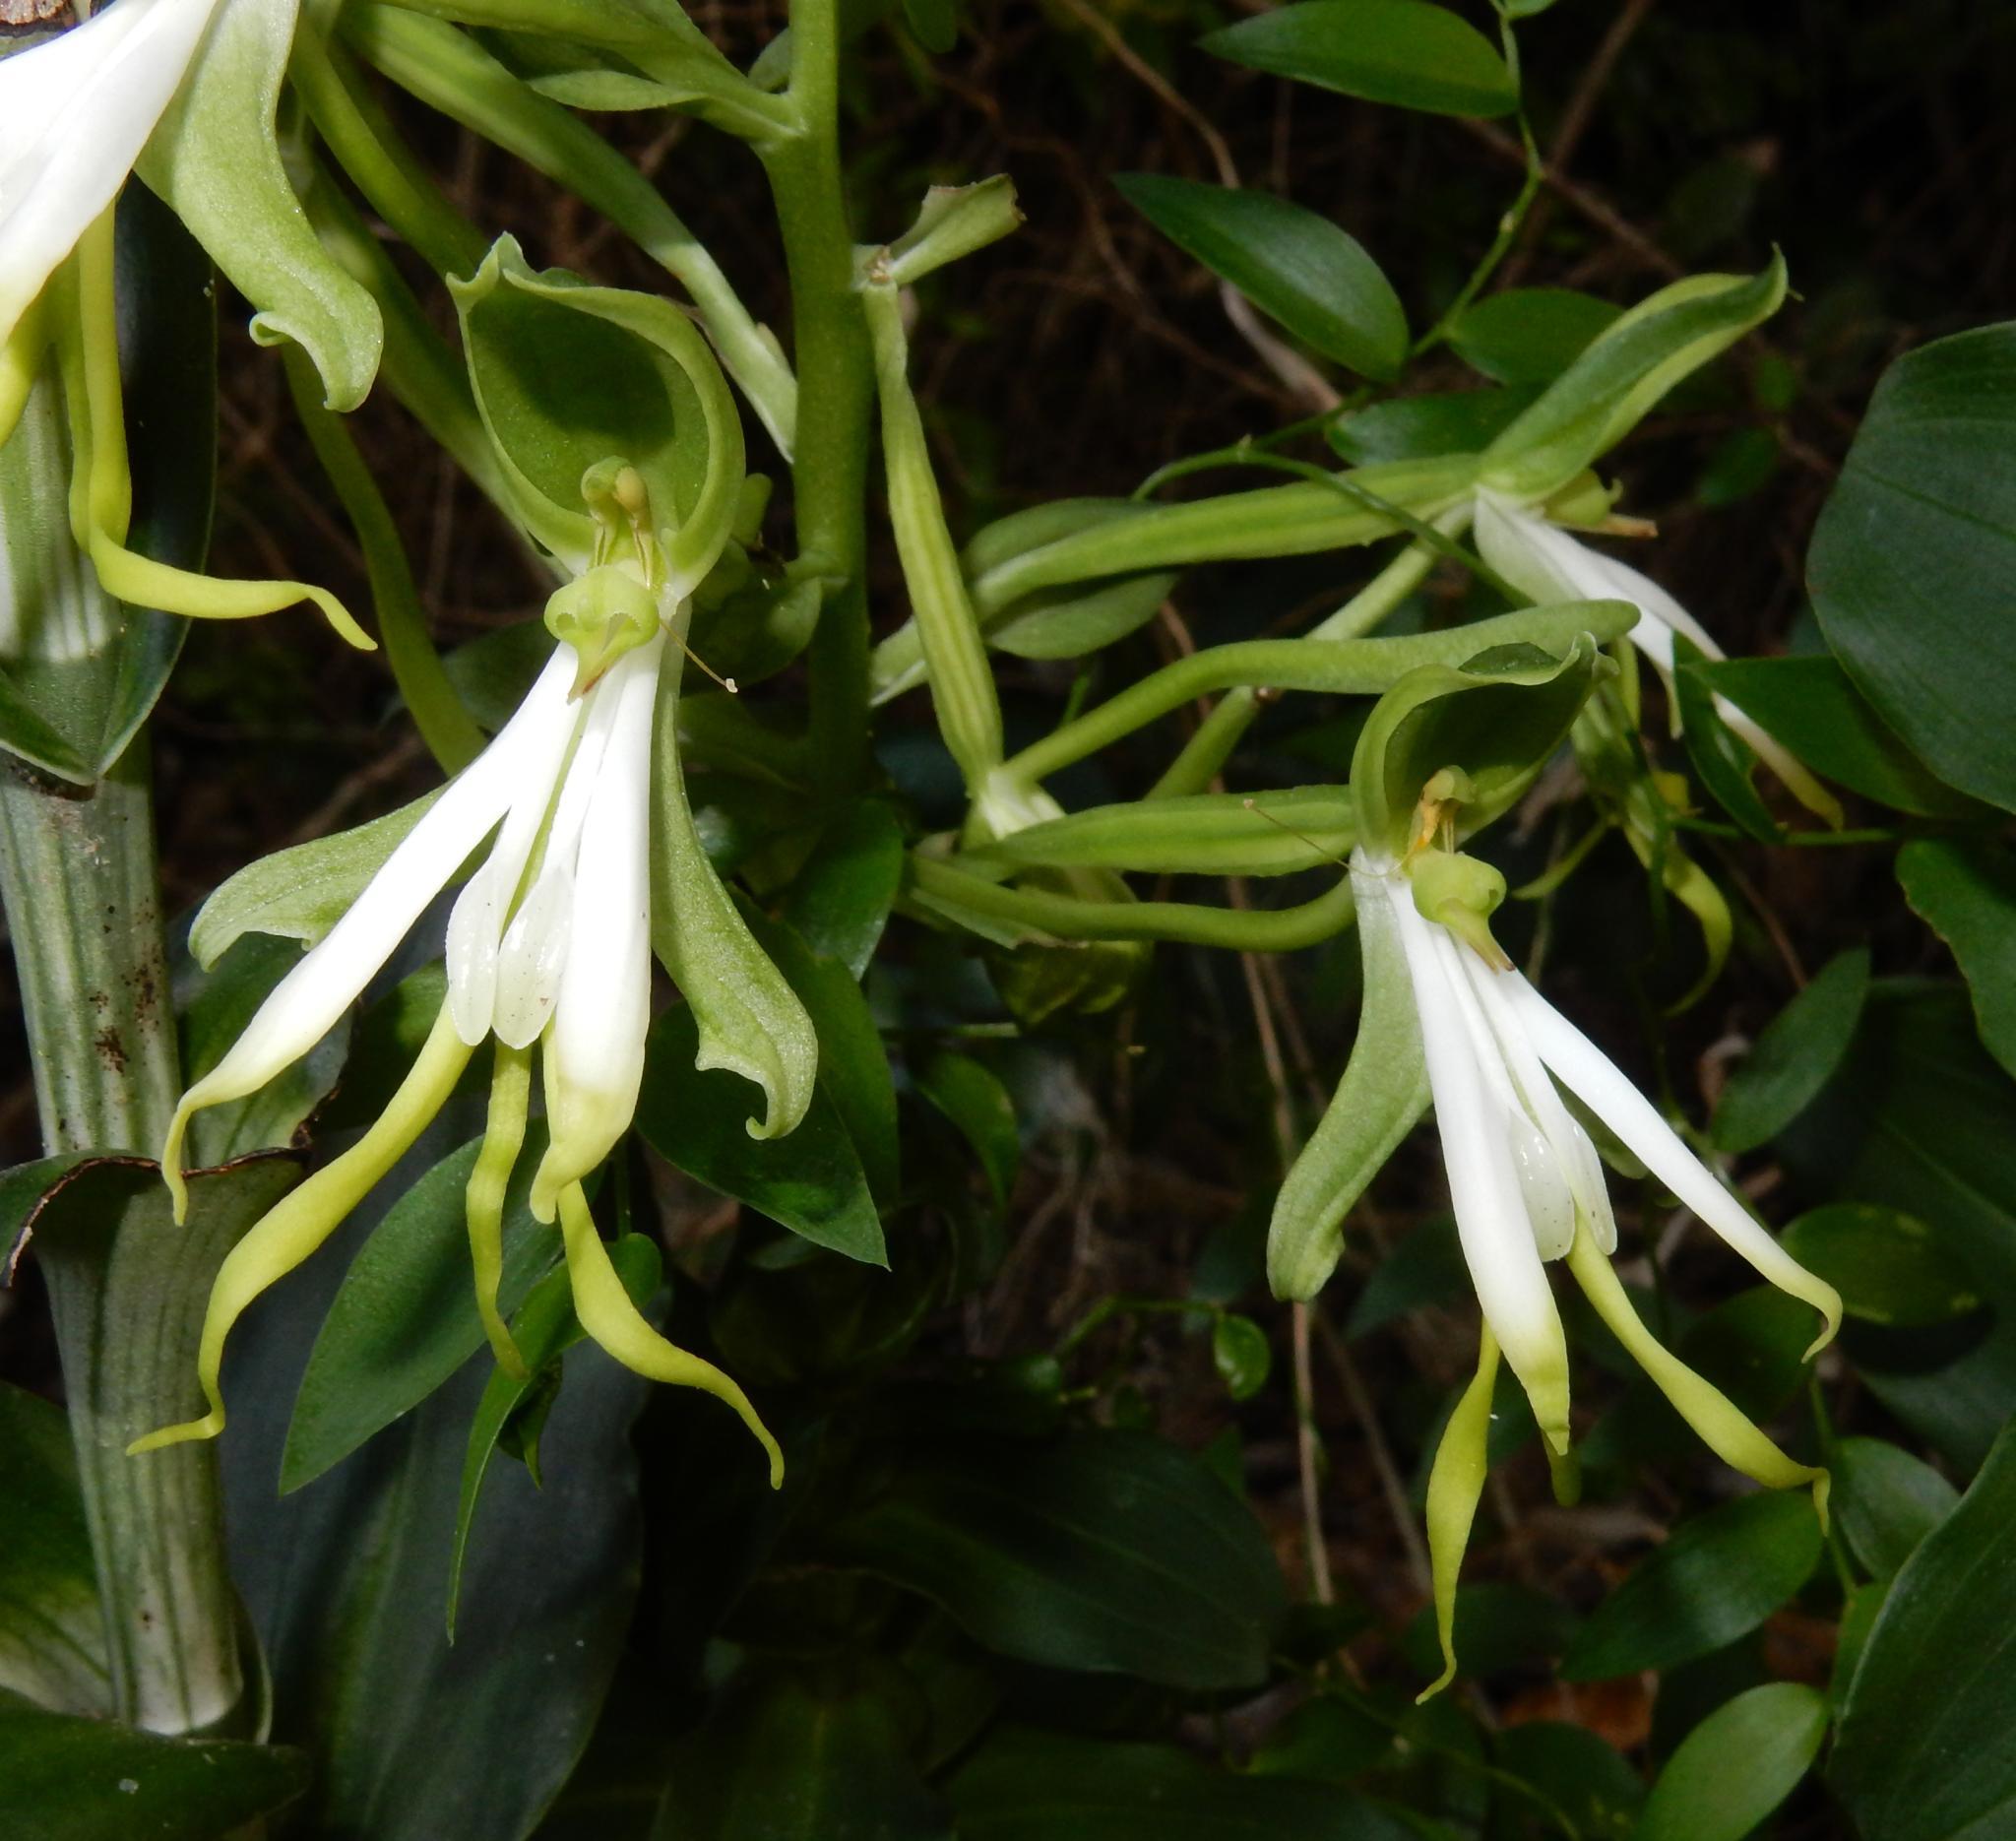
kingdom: Plantae
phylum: Tracheophyta
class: Liliopsida
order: Asparagales
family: Orchidaceae
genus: Bonatea
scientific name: Bonatea speciosa
